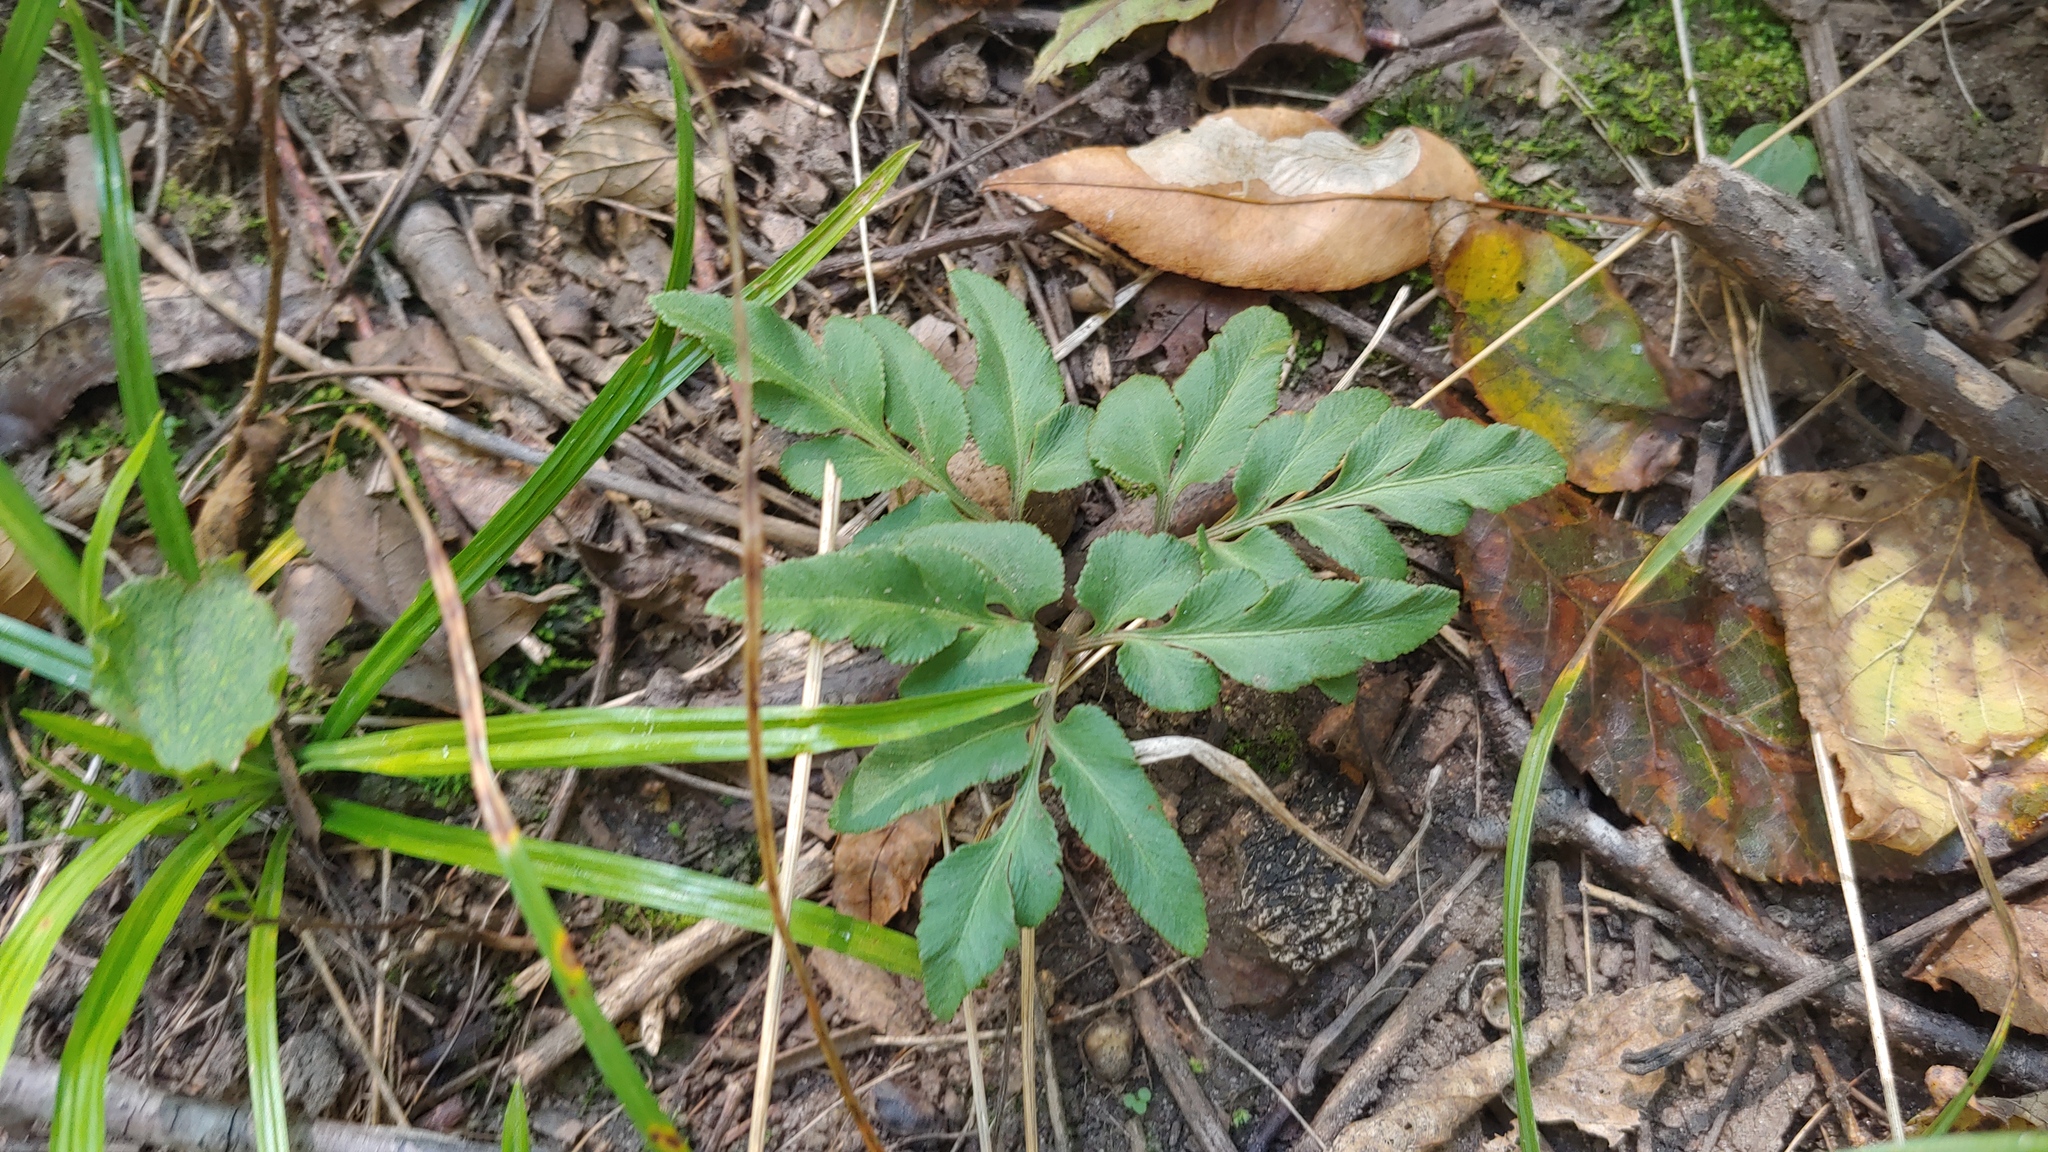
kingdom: Plantae
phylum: Tracheophyta
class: Polypodiopsida
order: Ophioglossales
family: Ophioglossaceae
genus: Sceptridium
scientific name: Sceptridium dissectum
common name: Cut-leaved grapefern
